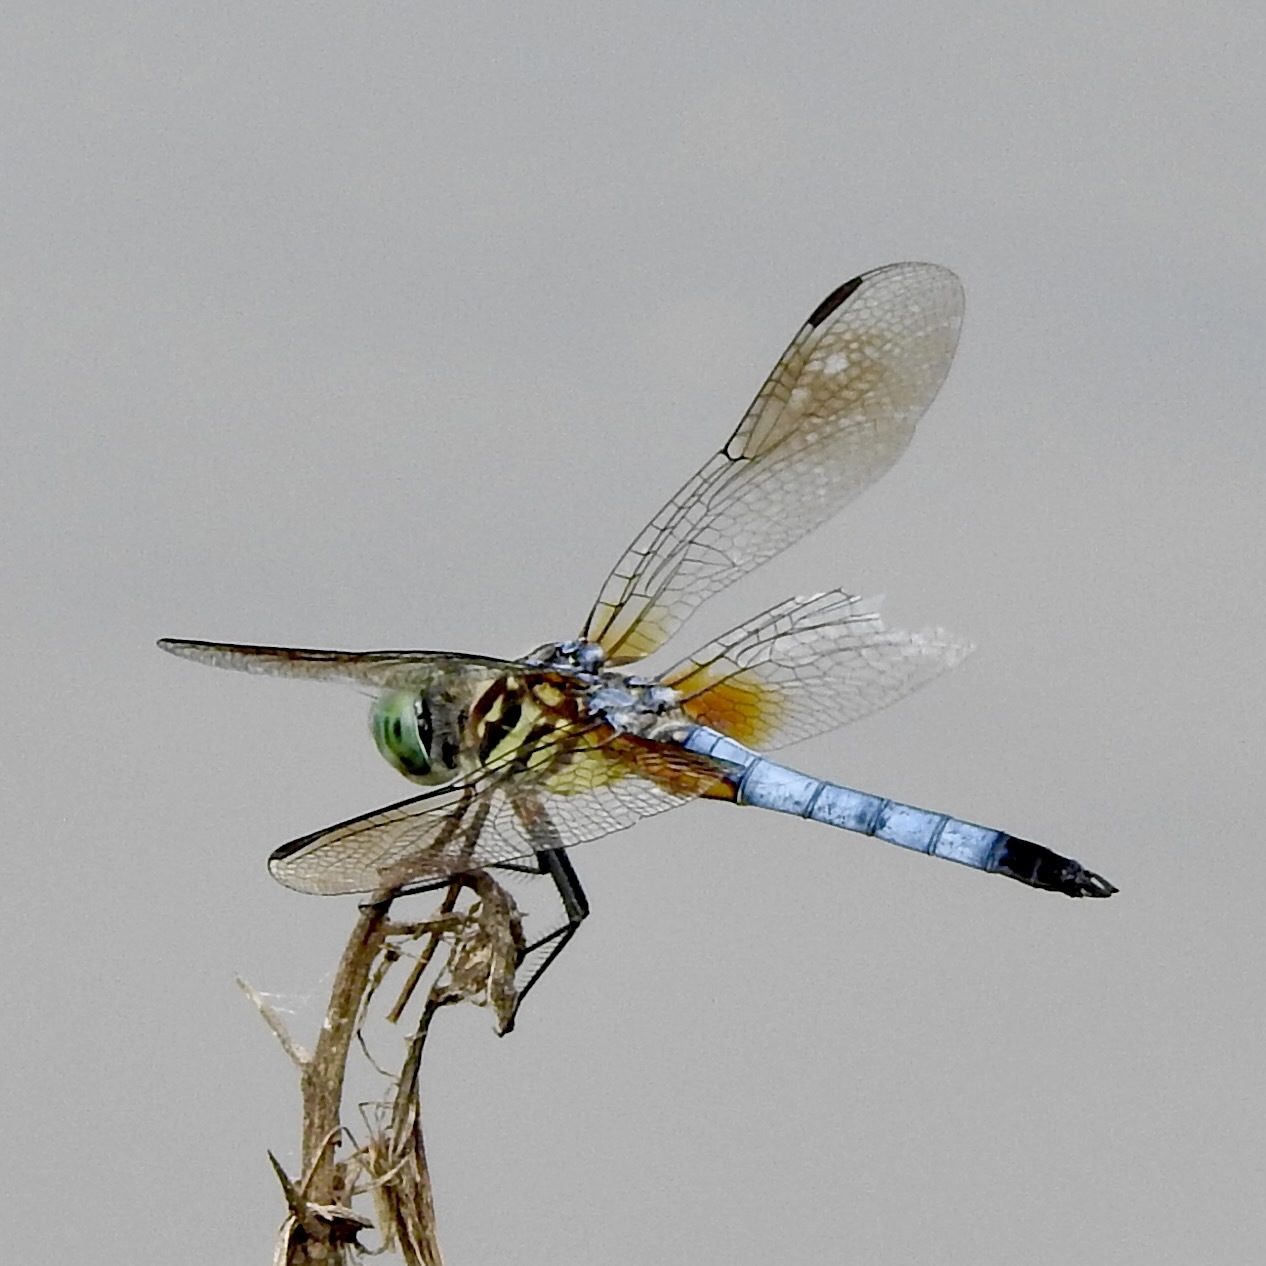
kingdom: Animalia
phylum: Arthropoda
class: Insecta
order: Odonata
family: Libellulidae
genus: Pachydiplax
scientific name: Pachydiplax longipennis
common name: Blue dasher
